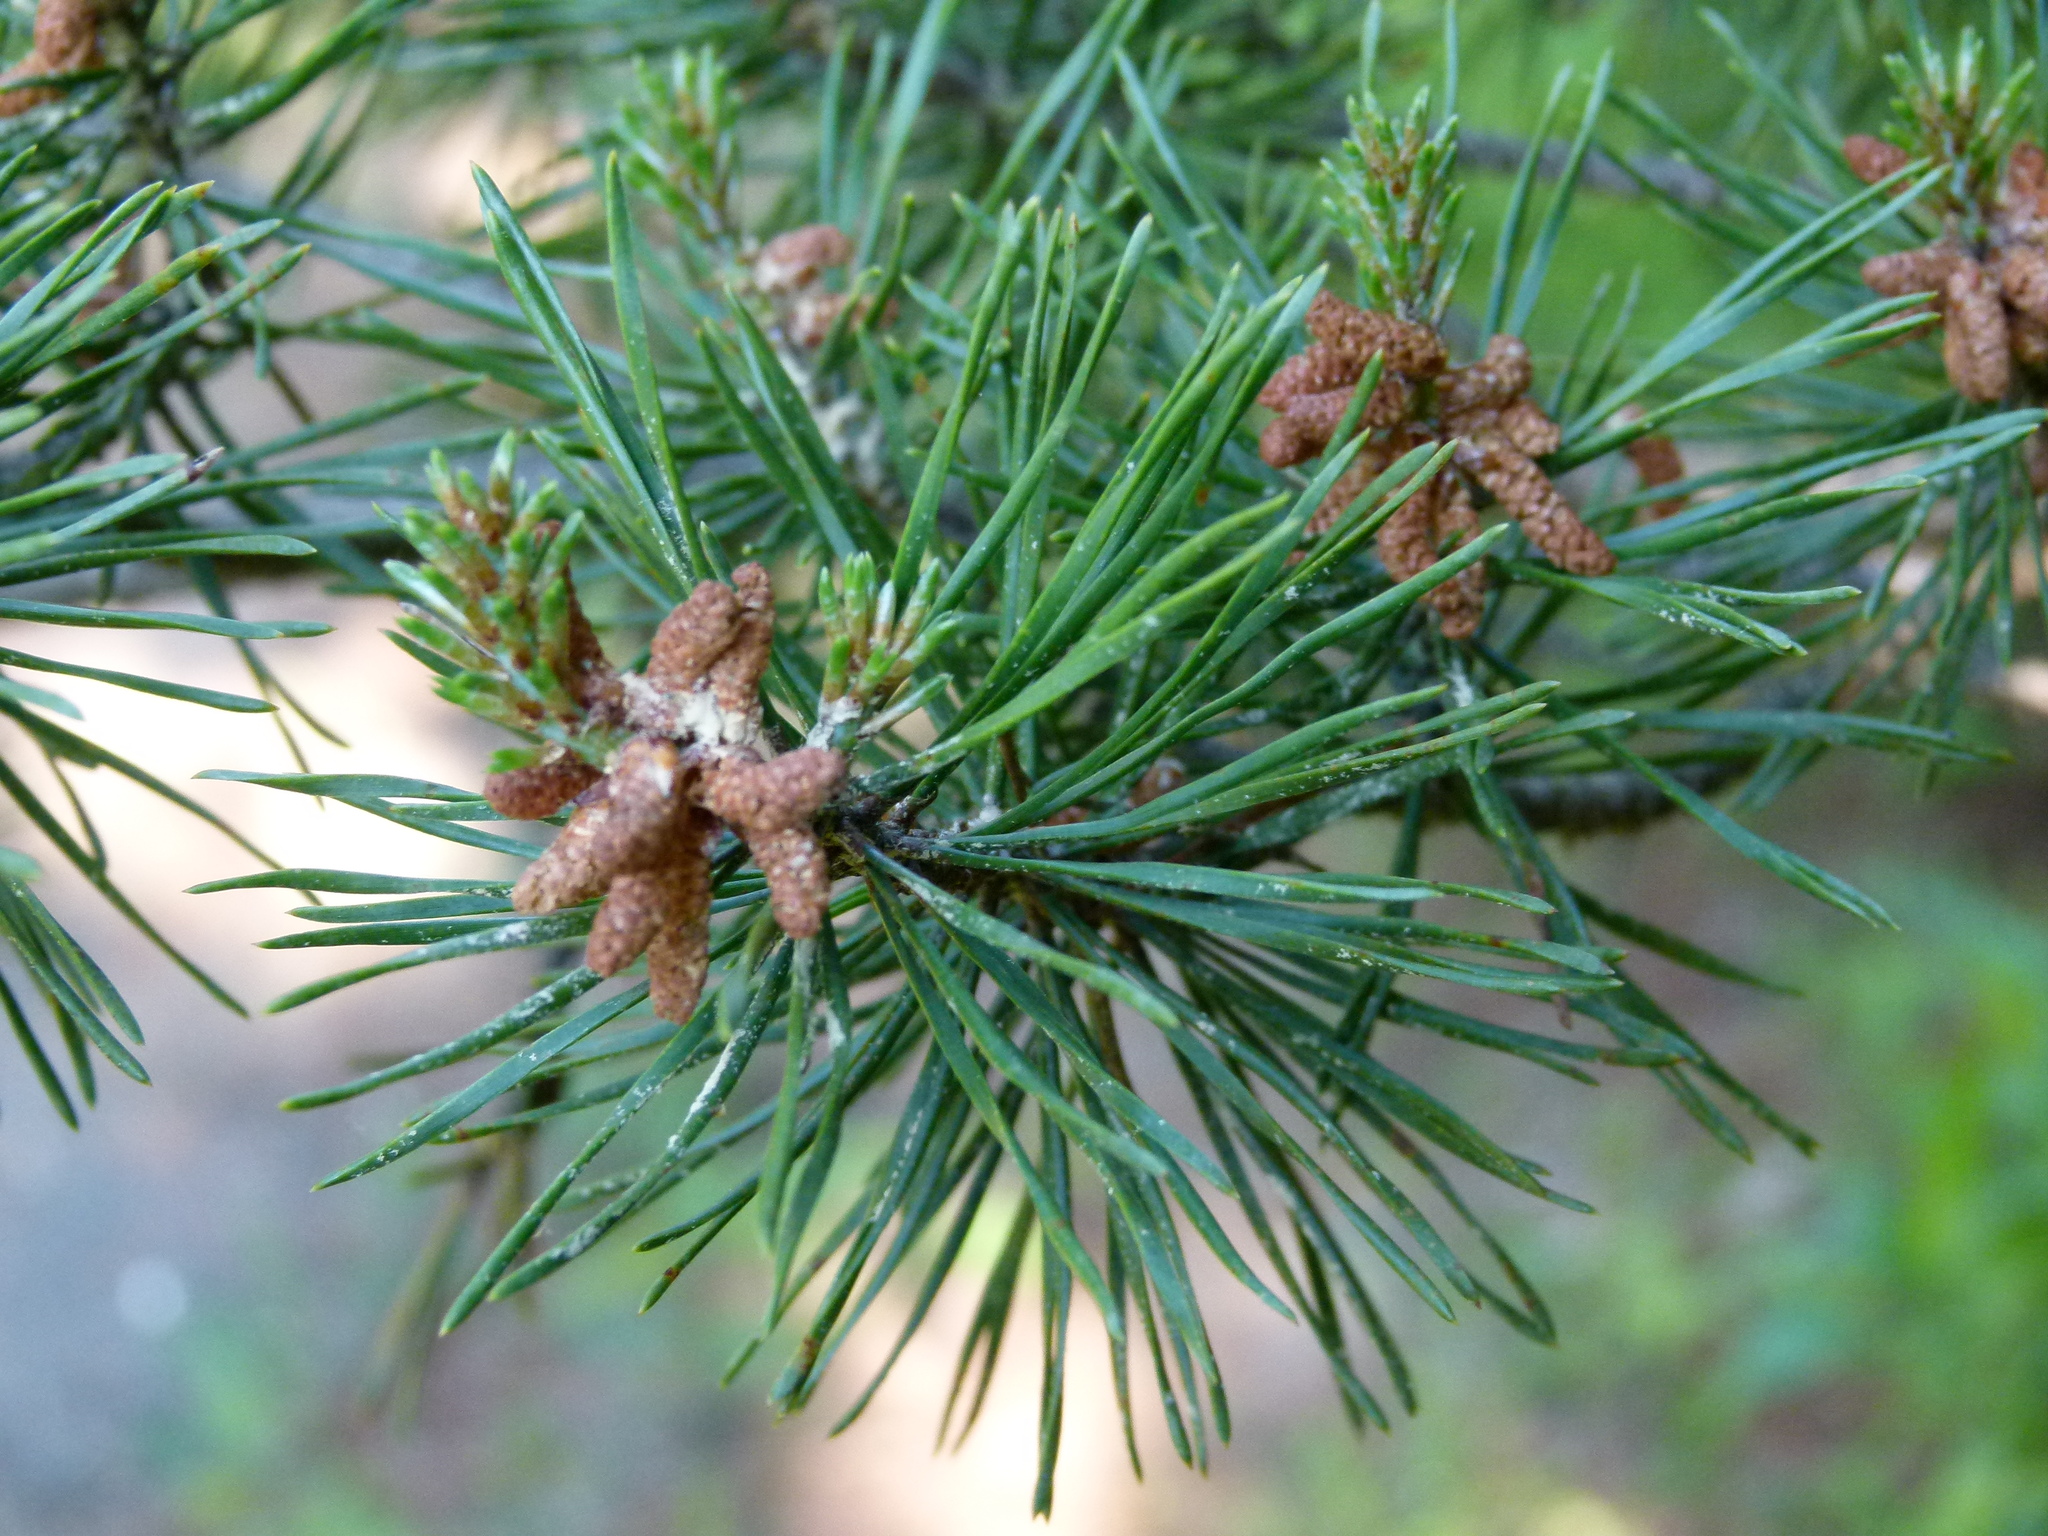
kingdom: Plantae
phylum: Tracheophyta
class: Pinopsida
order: Pinales
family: Pinaceae
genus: Pinus
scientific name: Pinus virginiana
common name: Scrub pine
